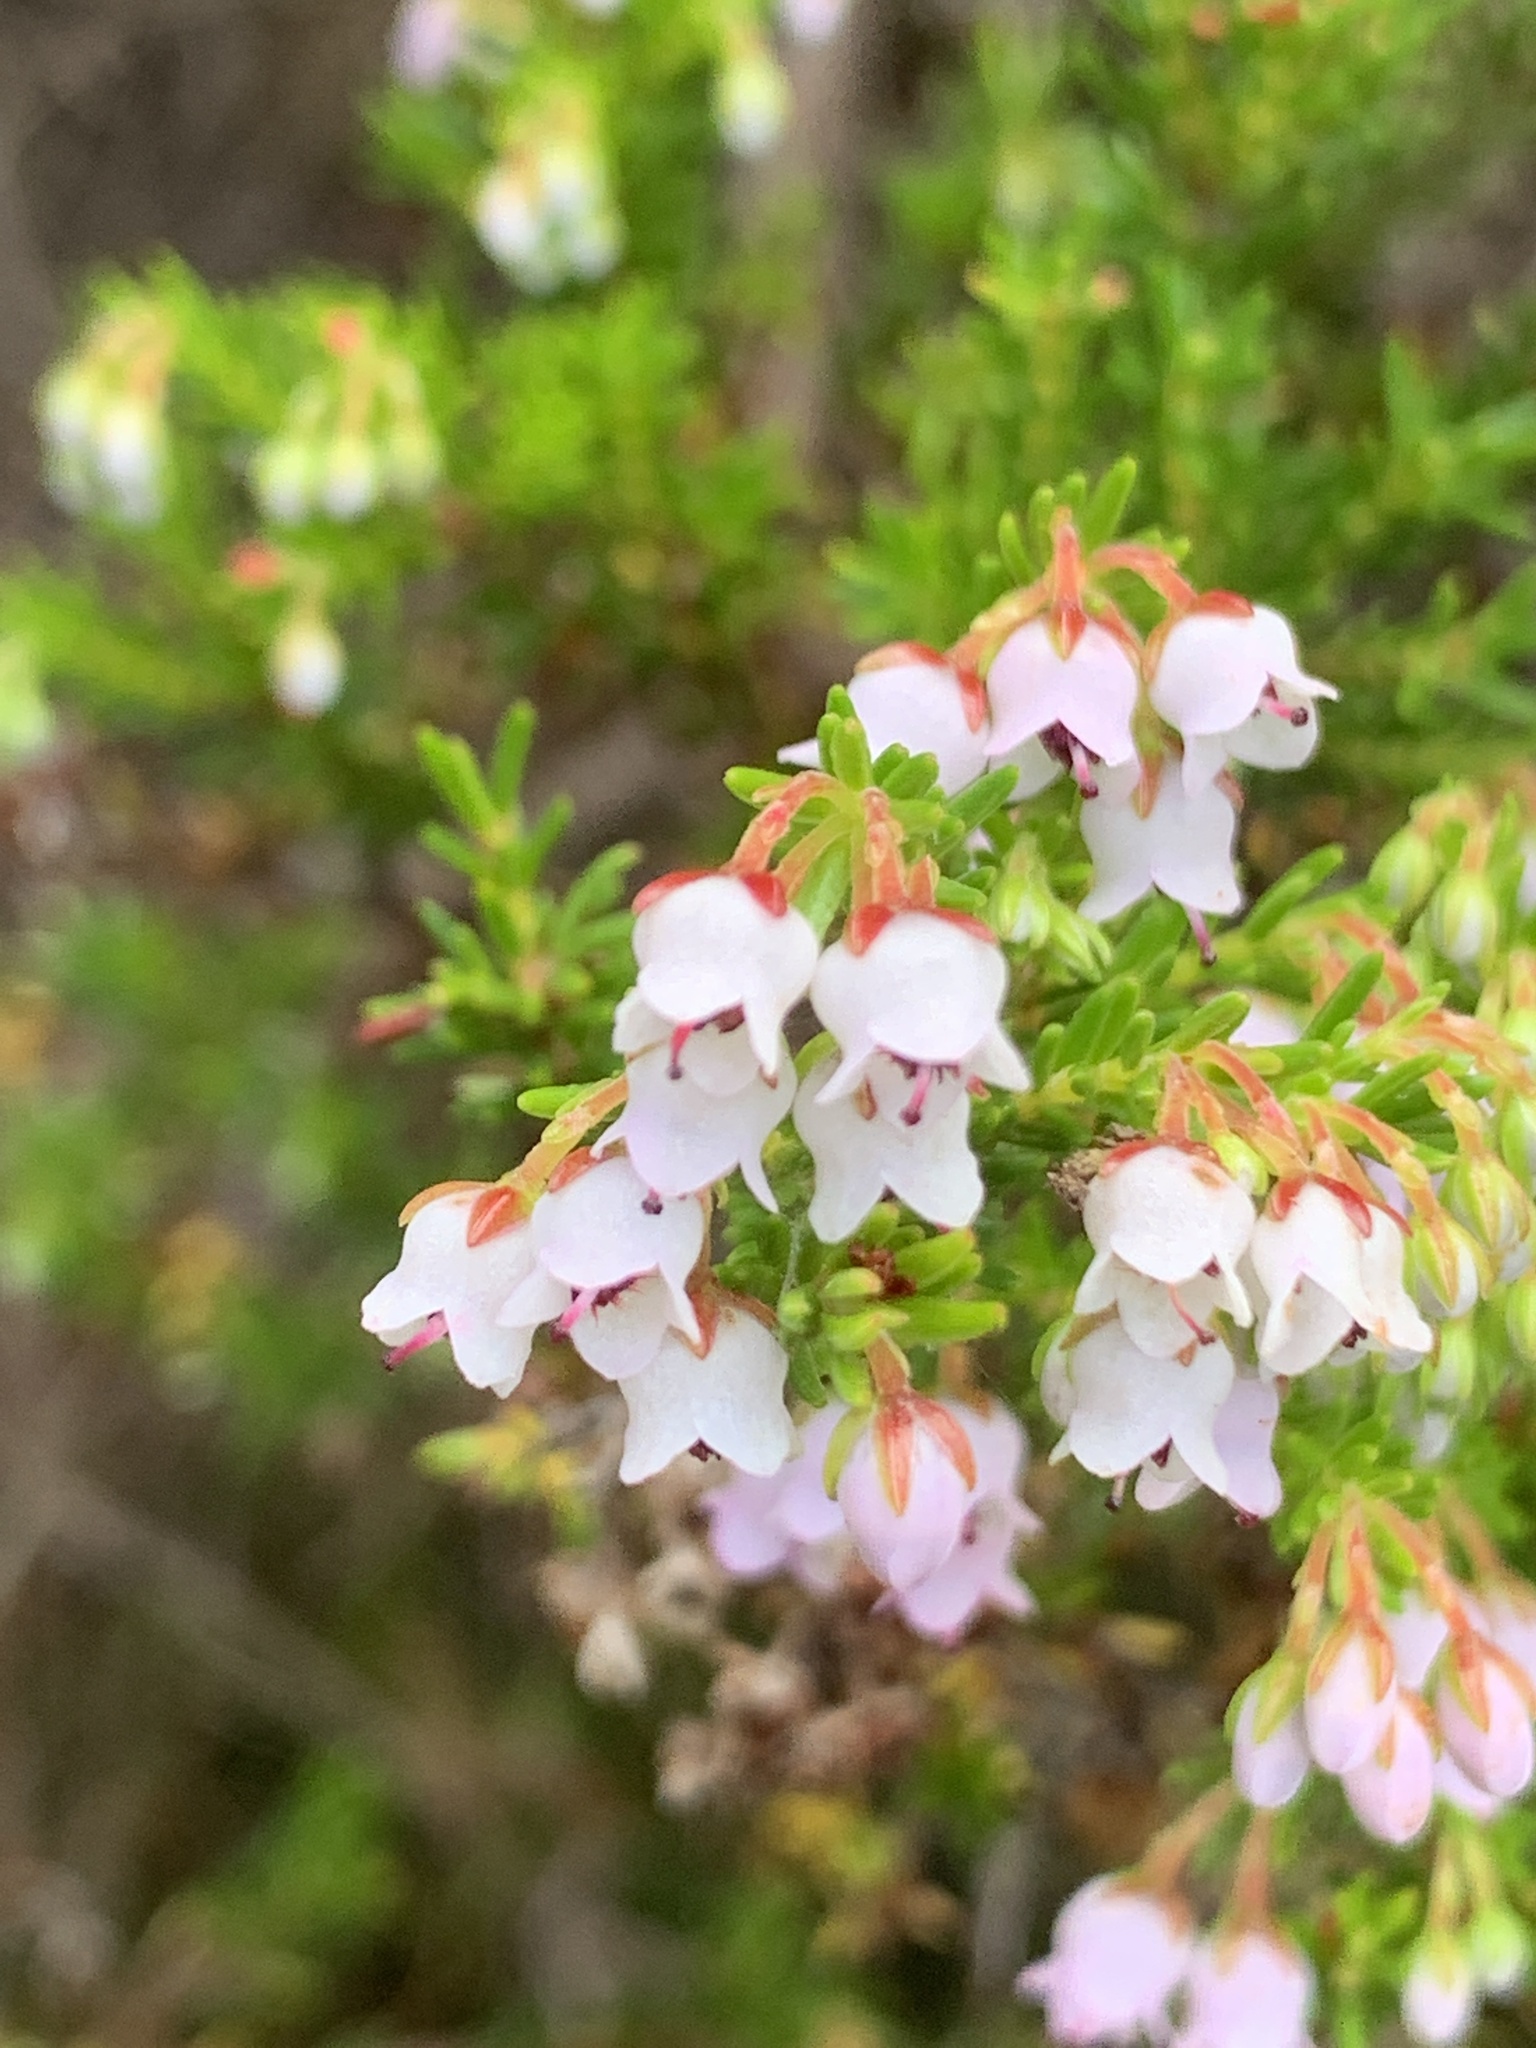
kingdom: Plantae
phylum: Tracheophyta
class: Magnoliopsida
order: Ericales
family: Ericaceae
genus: Erica
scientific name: Erica curvirostris
